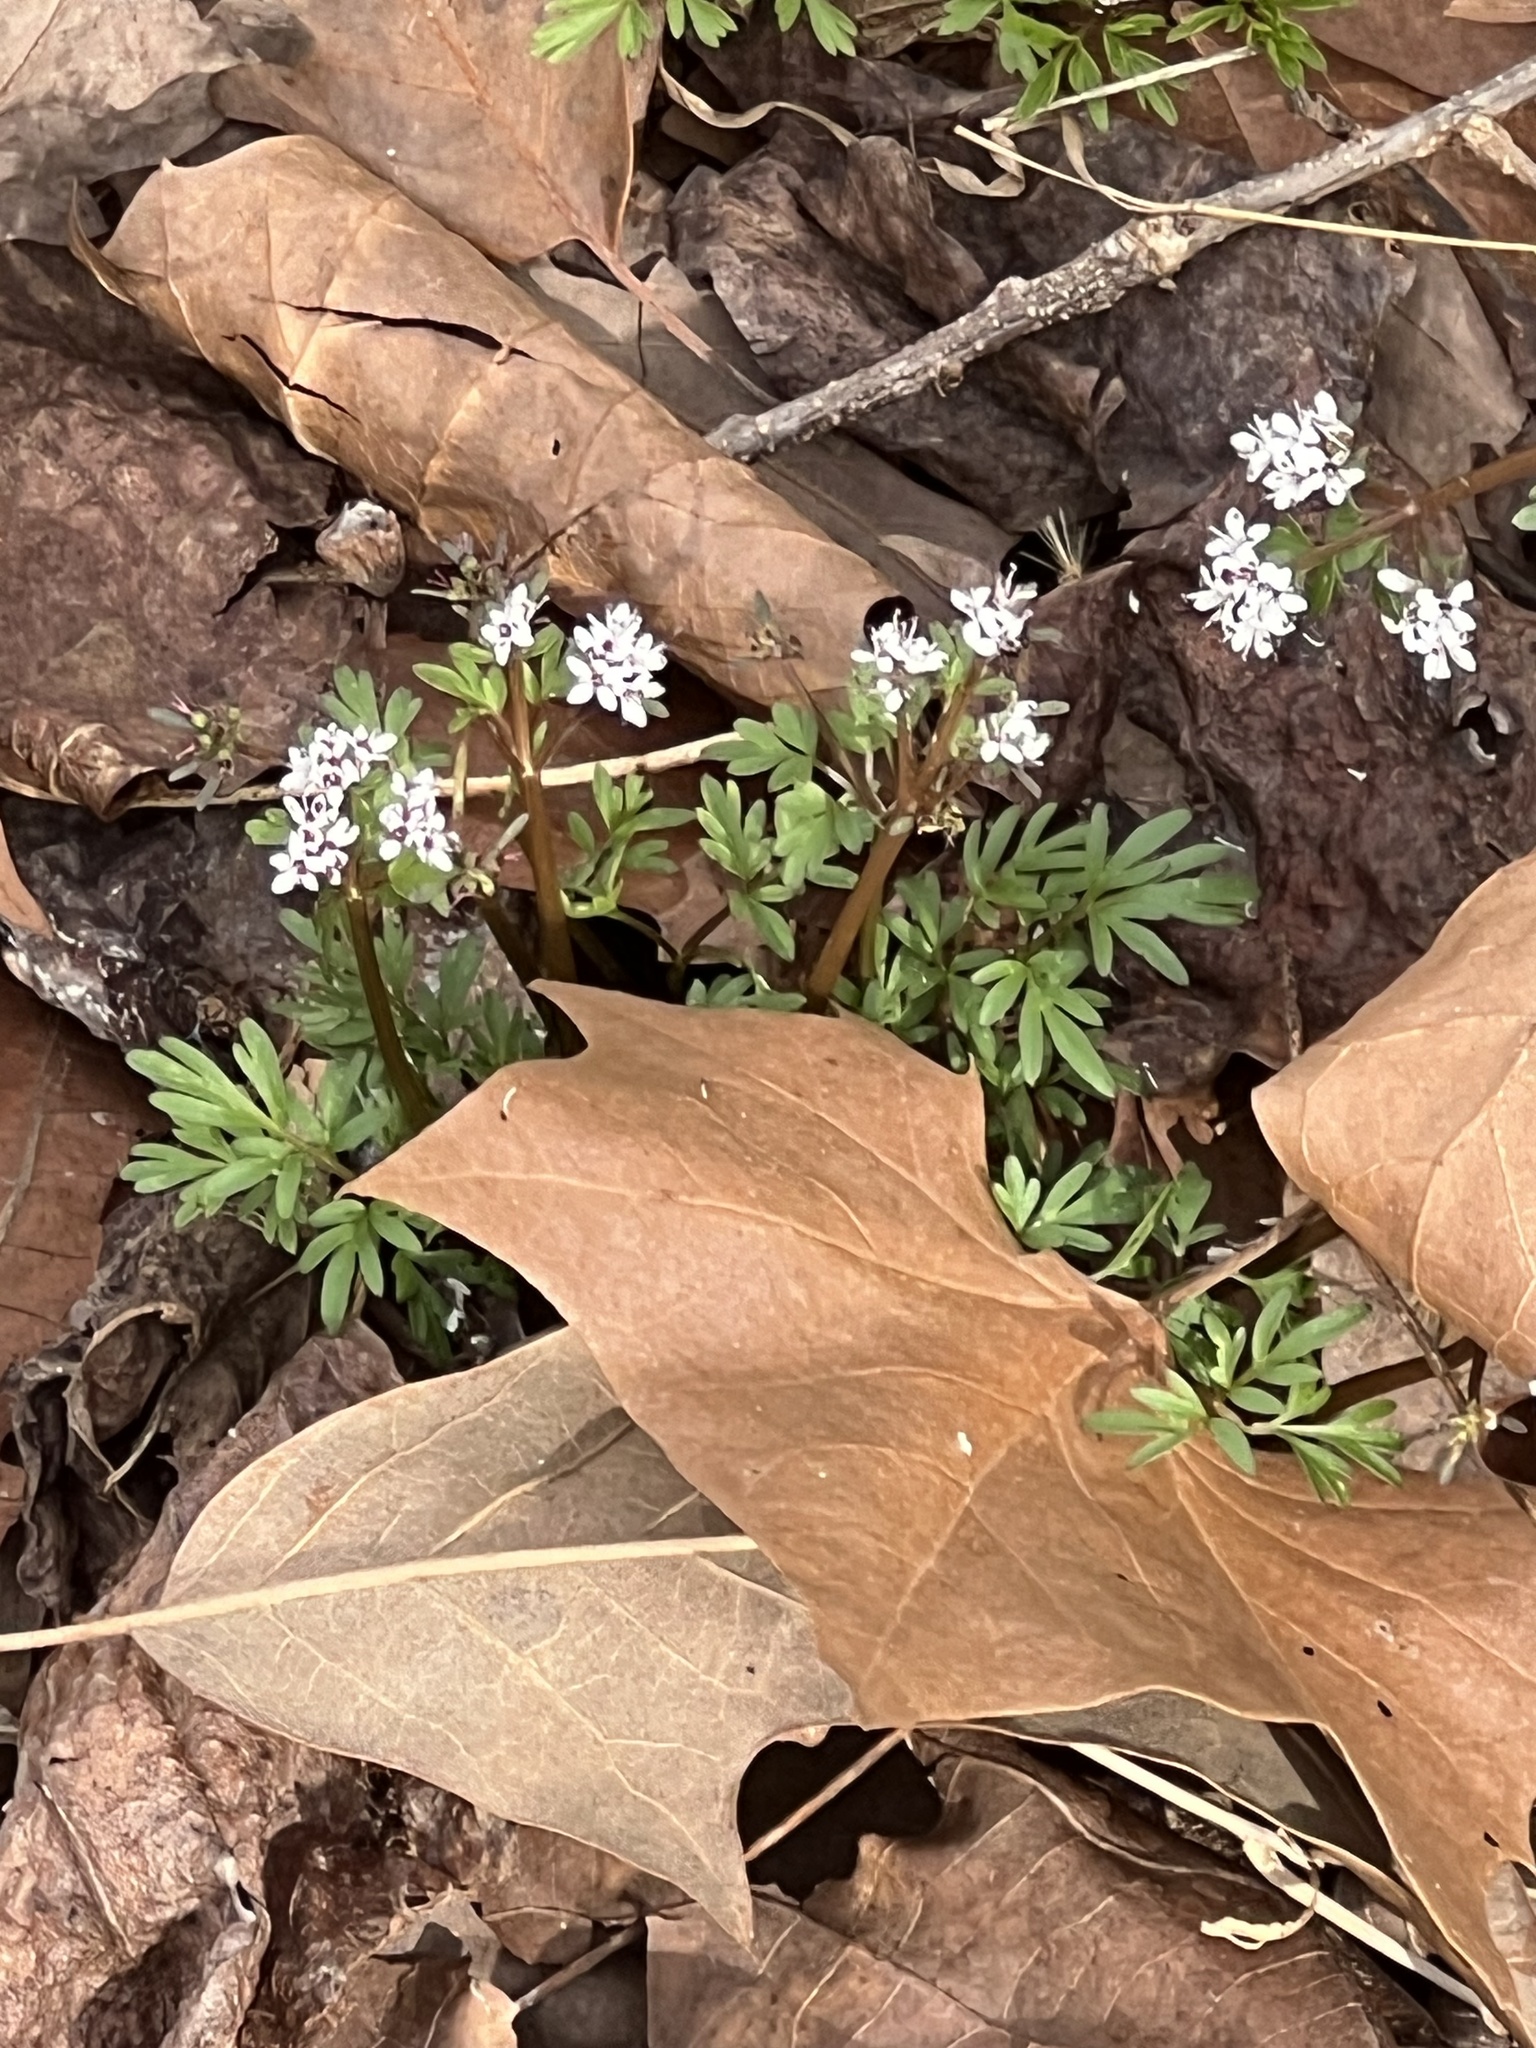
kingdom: Plantae
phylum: Tracheophyta
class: Magnoliopsida
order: Apiales
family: Apiaceae
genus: Erigenia
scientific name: Erigenia bulbosa
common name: Pepper-and-salt
